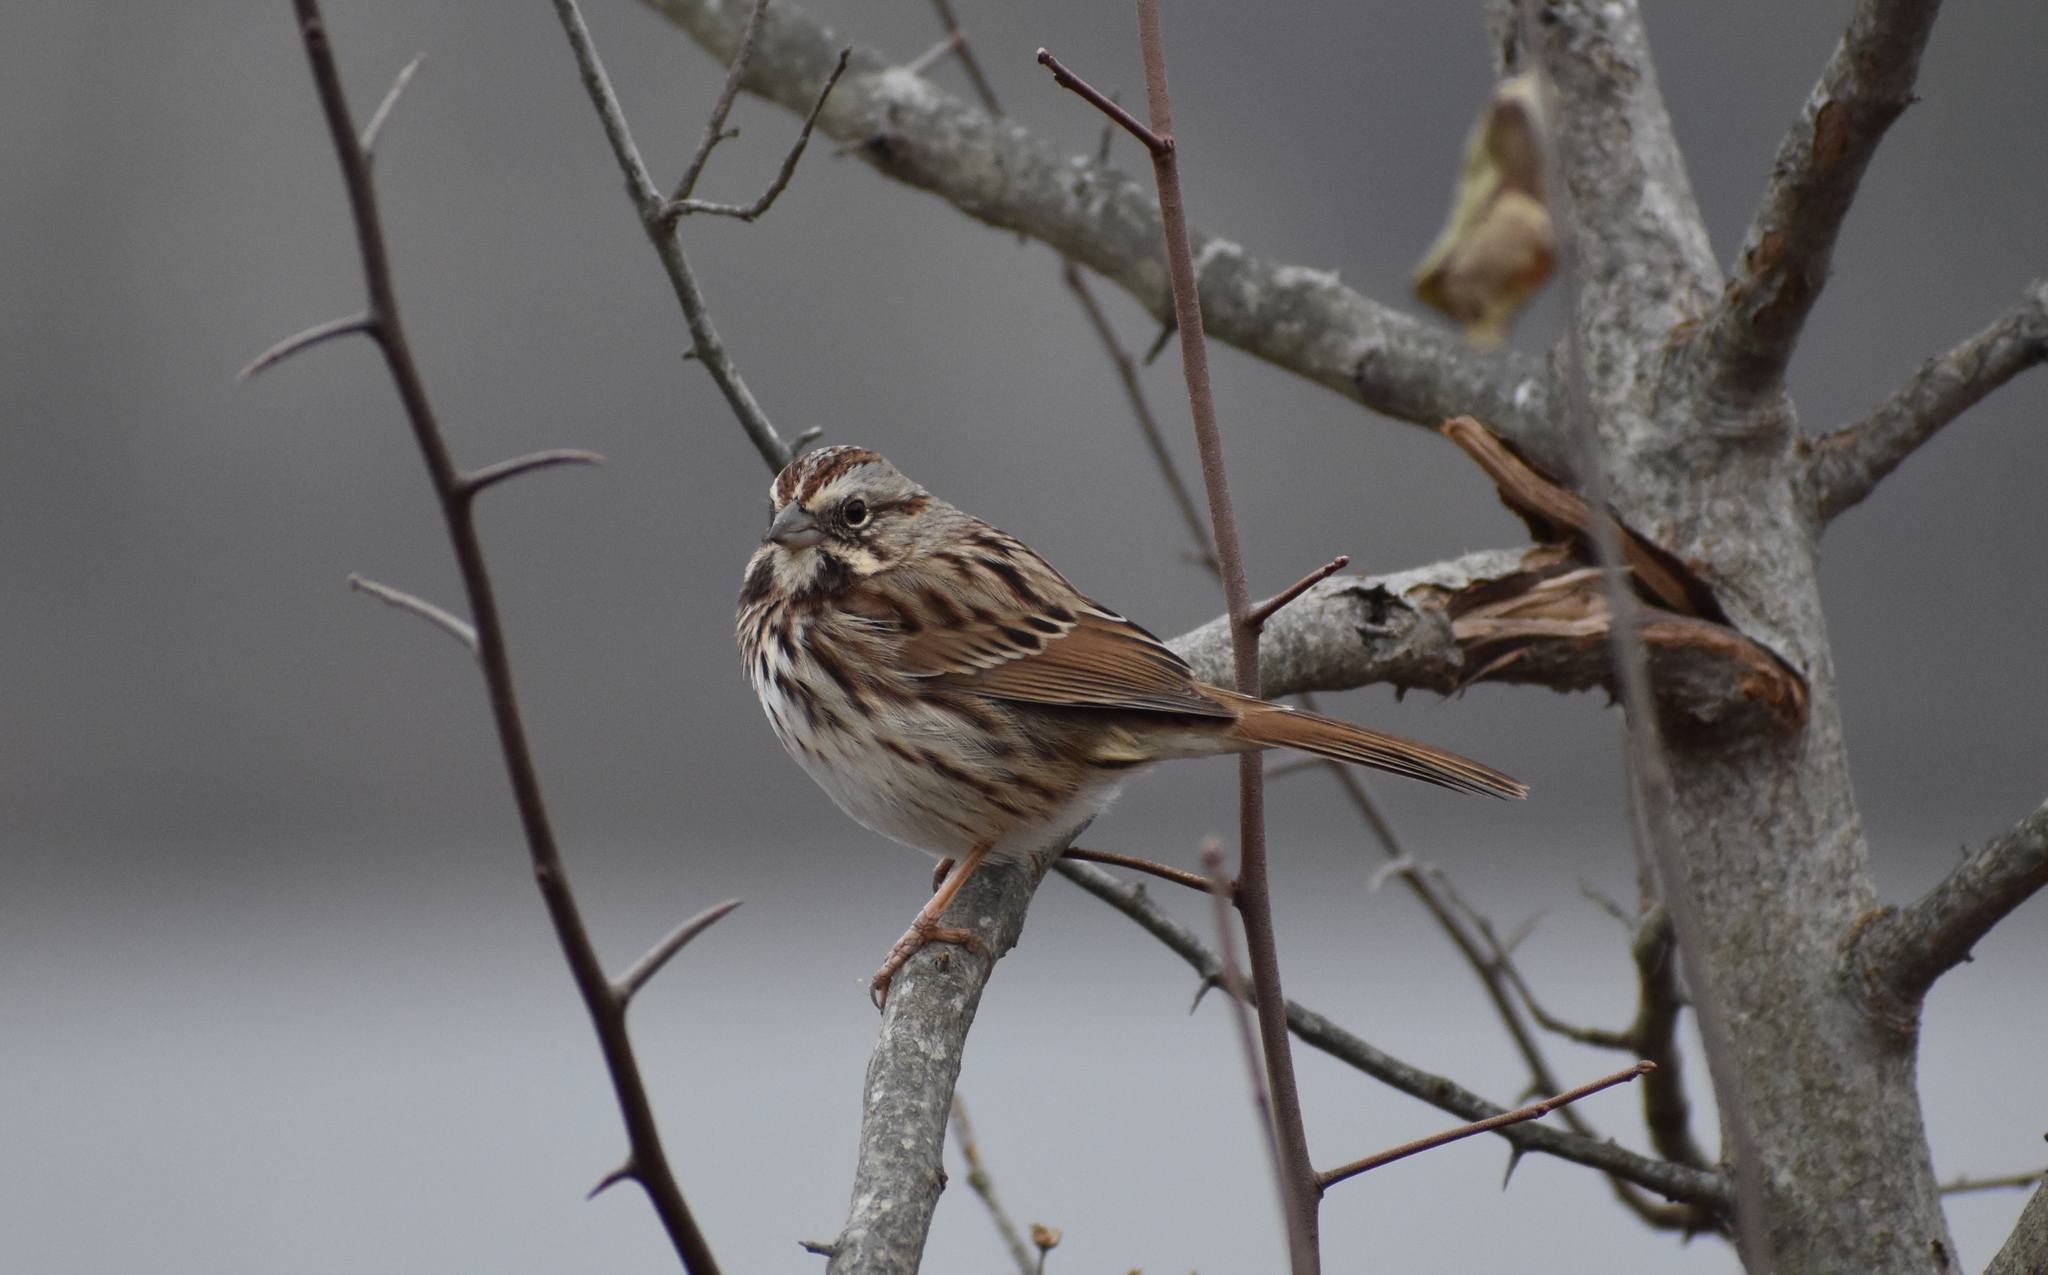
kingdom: Animalia
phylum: Chordata
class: Aves
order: Passeriformes
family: Passerellidae
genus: Melospiza
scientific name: Melospiza melodia
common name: Song sparrow
